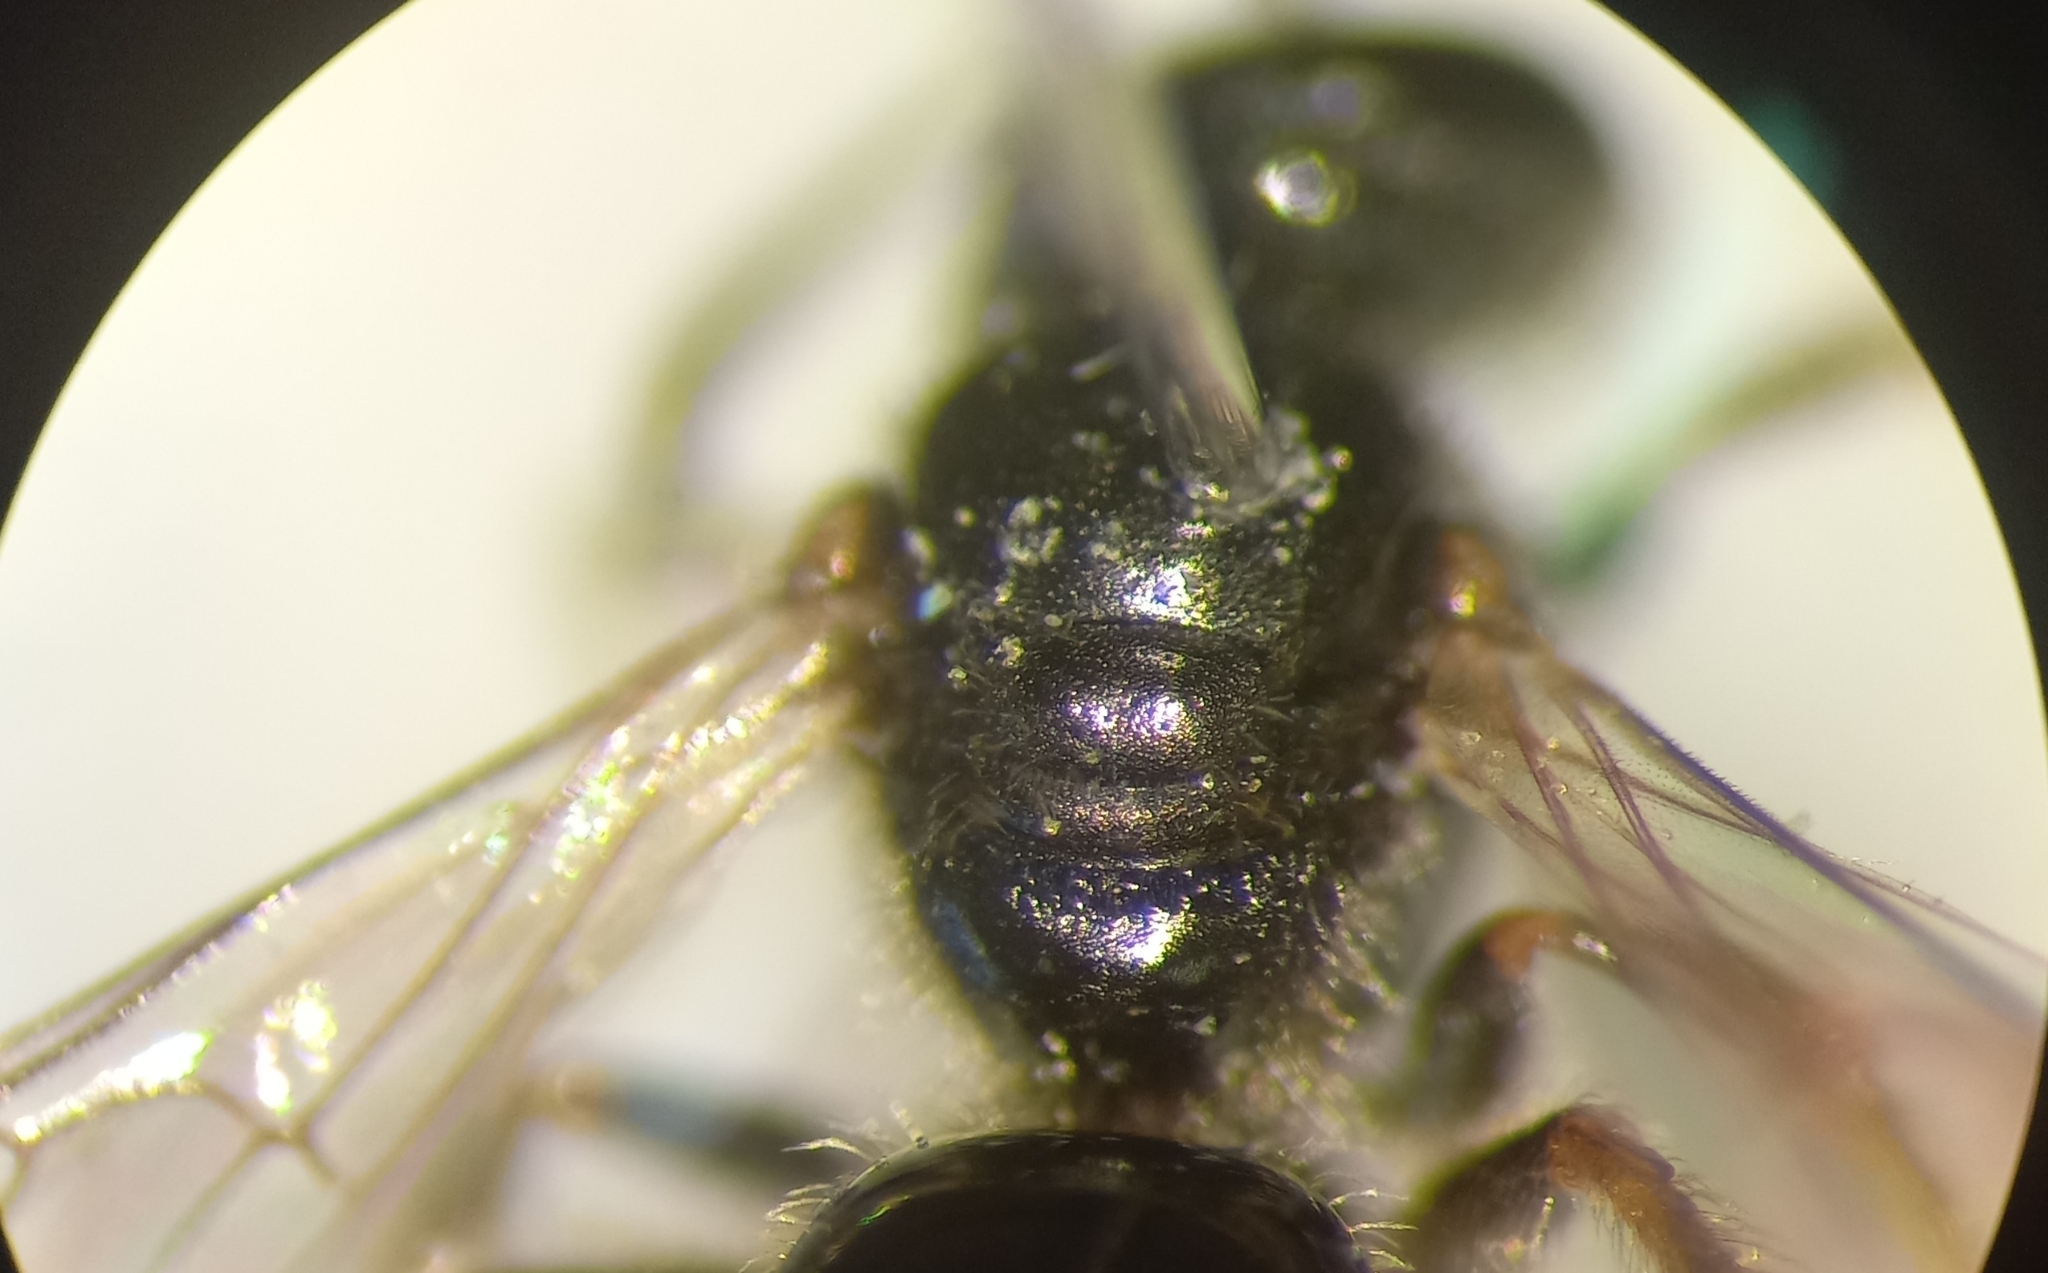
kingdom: Animalia
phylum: Arthropoda
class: Insecta
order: Hymenoptera
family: Halictidae
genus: Lasioglossum
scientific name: Lasioglossum politum
